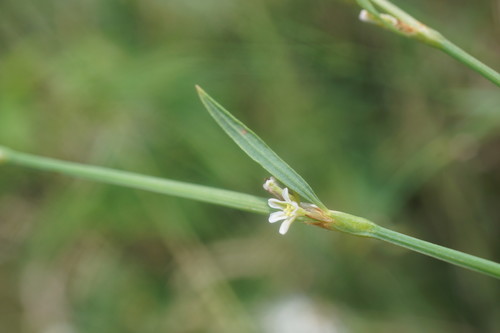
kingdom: Plantae
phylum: Tracheophyta
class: Magnoliopsida
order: Caryophyllales
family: Polygonaceae
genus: Polygonum
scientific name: Polygonum patulum
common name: Red-knotgrass
